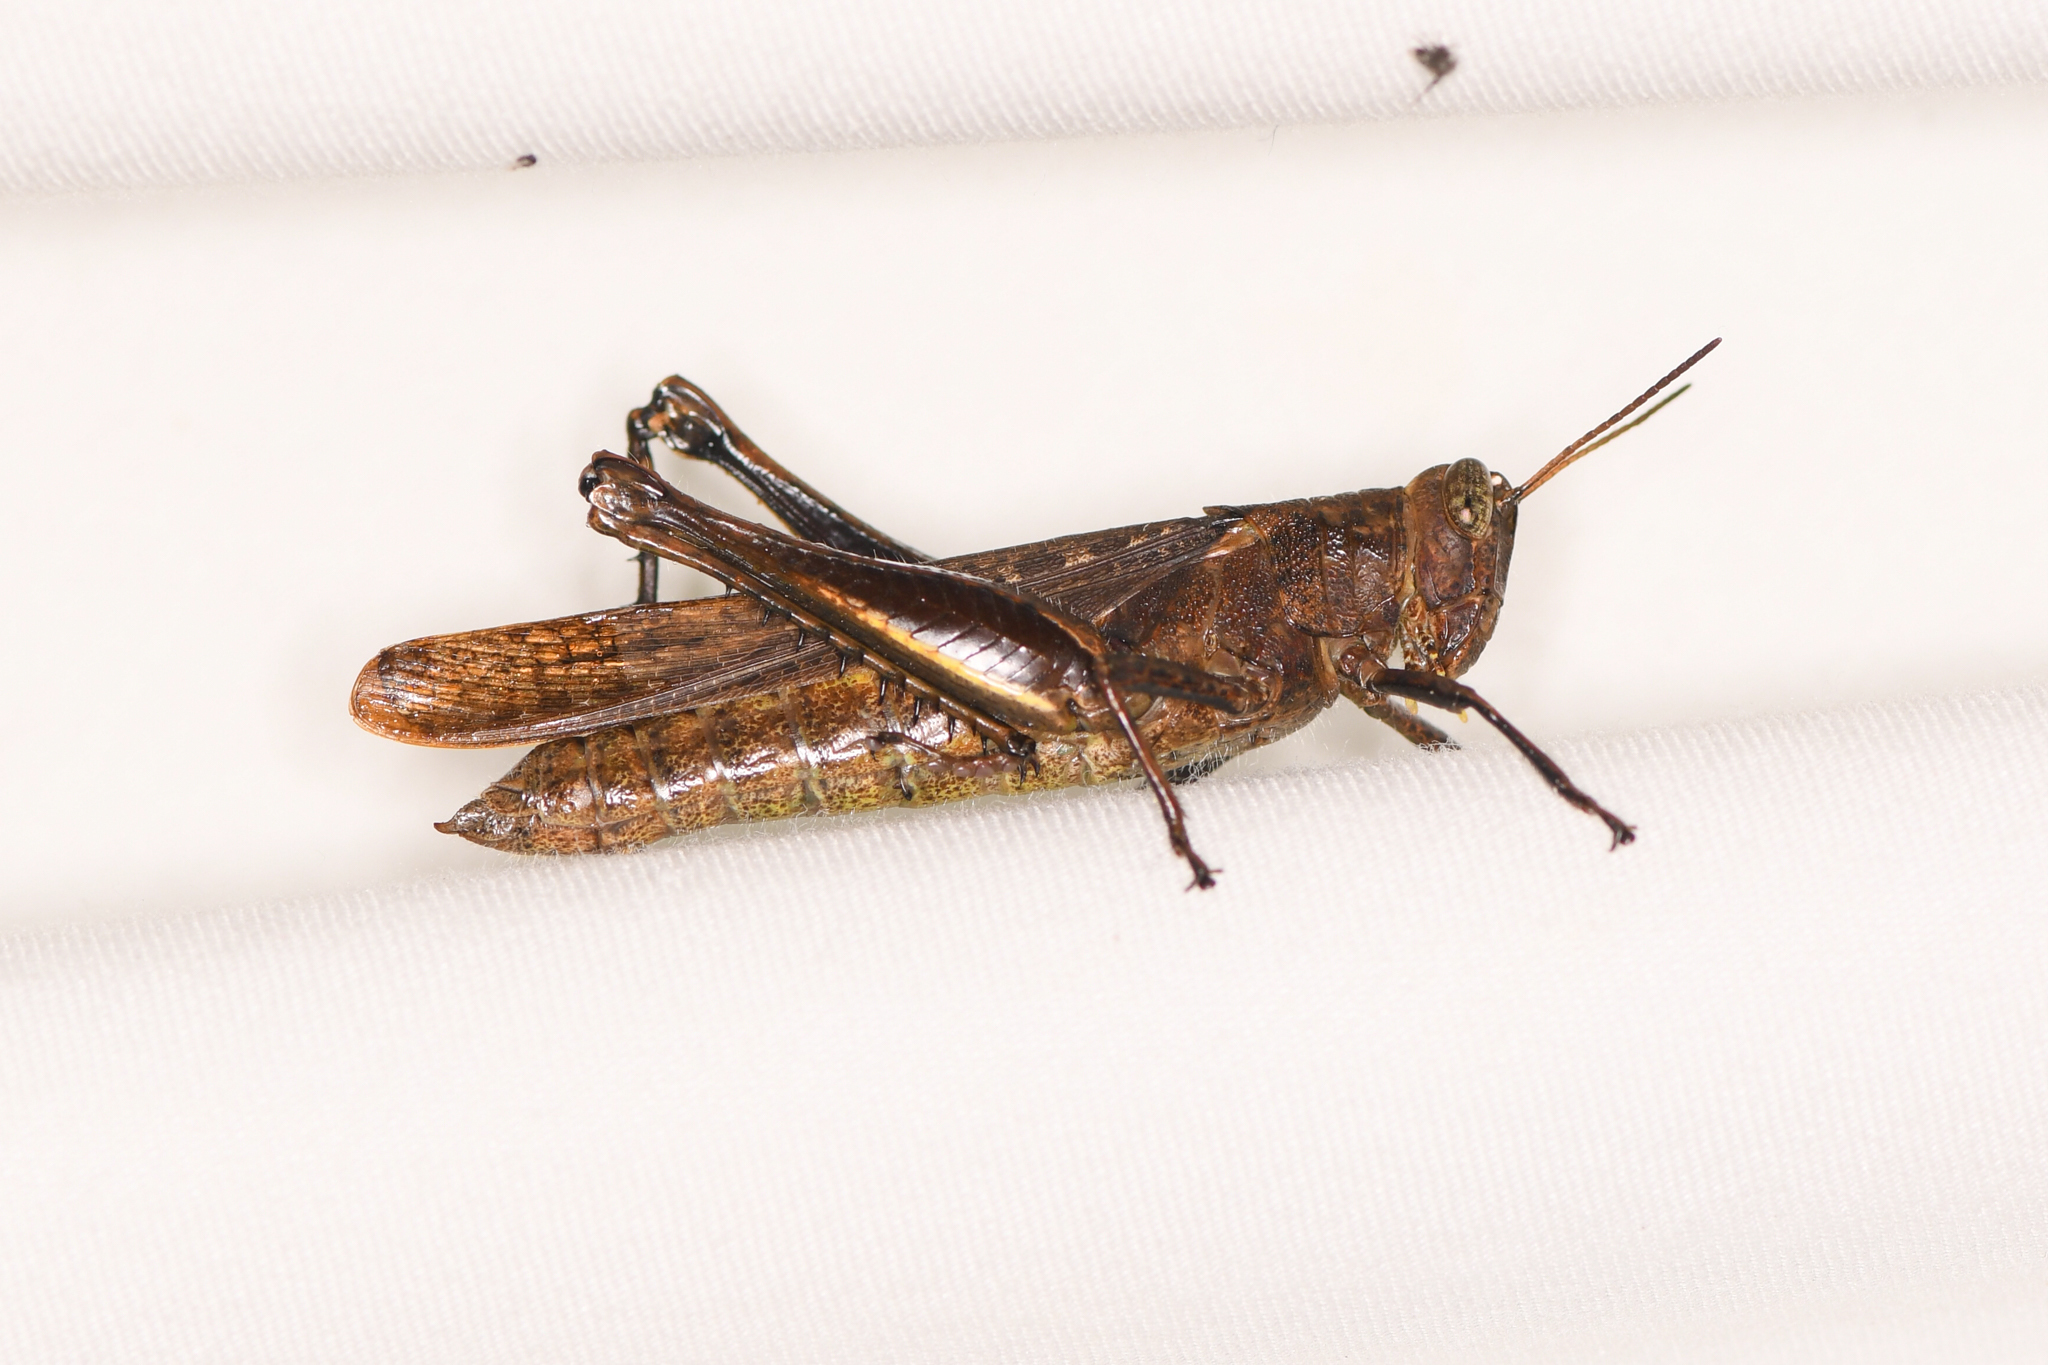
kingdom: Animalia
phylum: Arthropoda
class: Insecta
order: Orthoptera
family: Acrididae
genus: Abracris
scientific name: Abracris flavolineata
